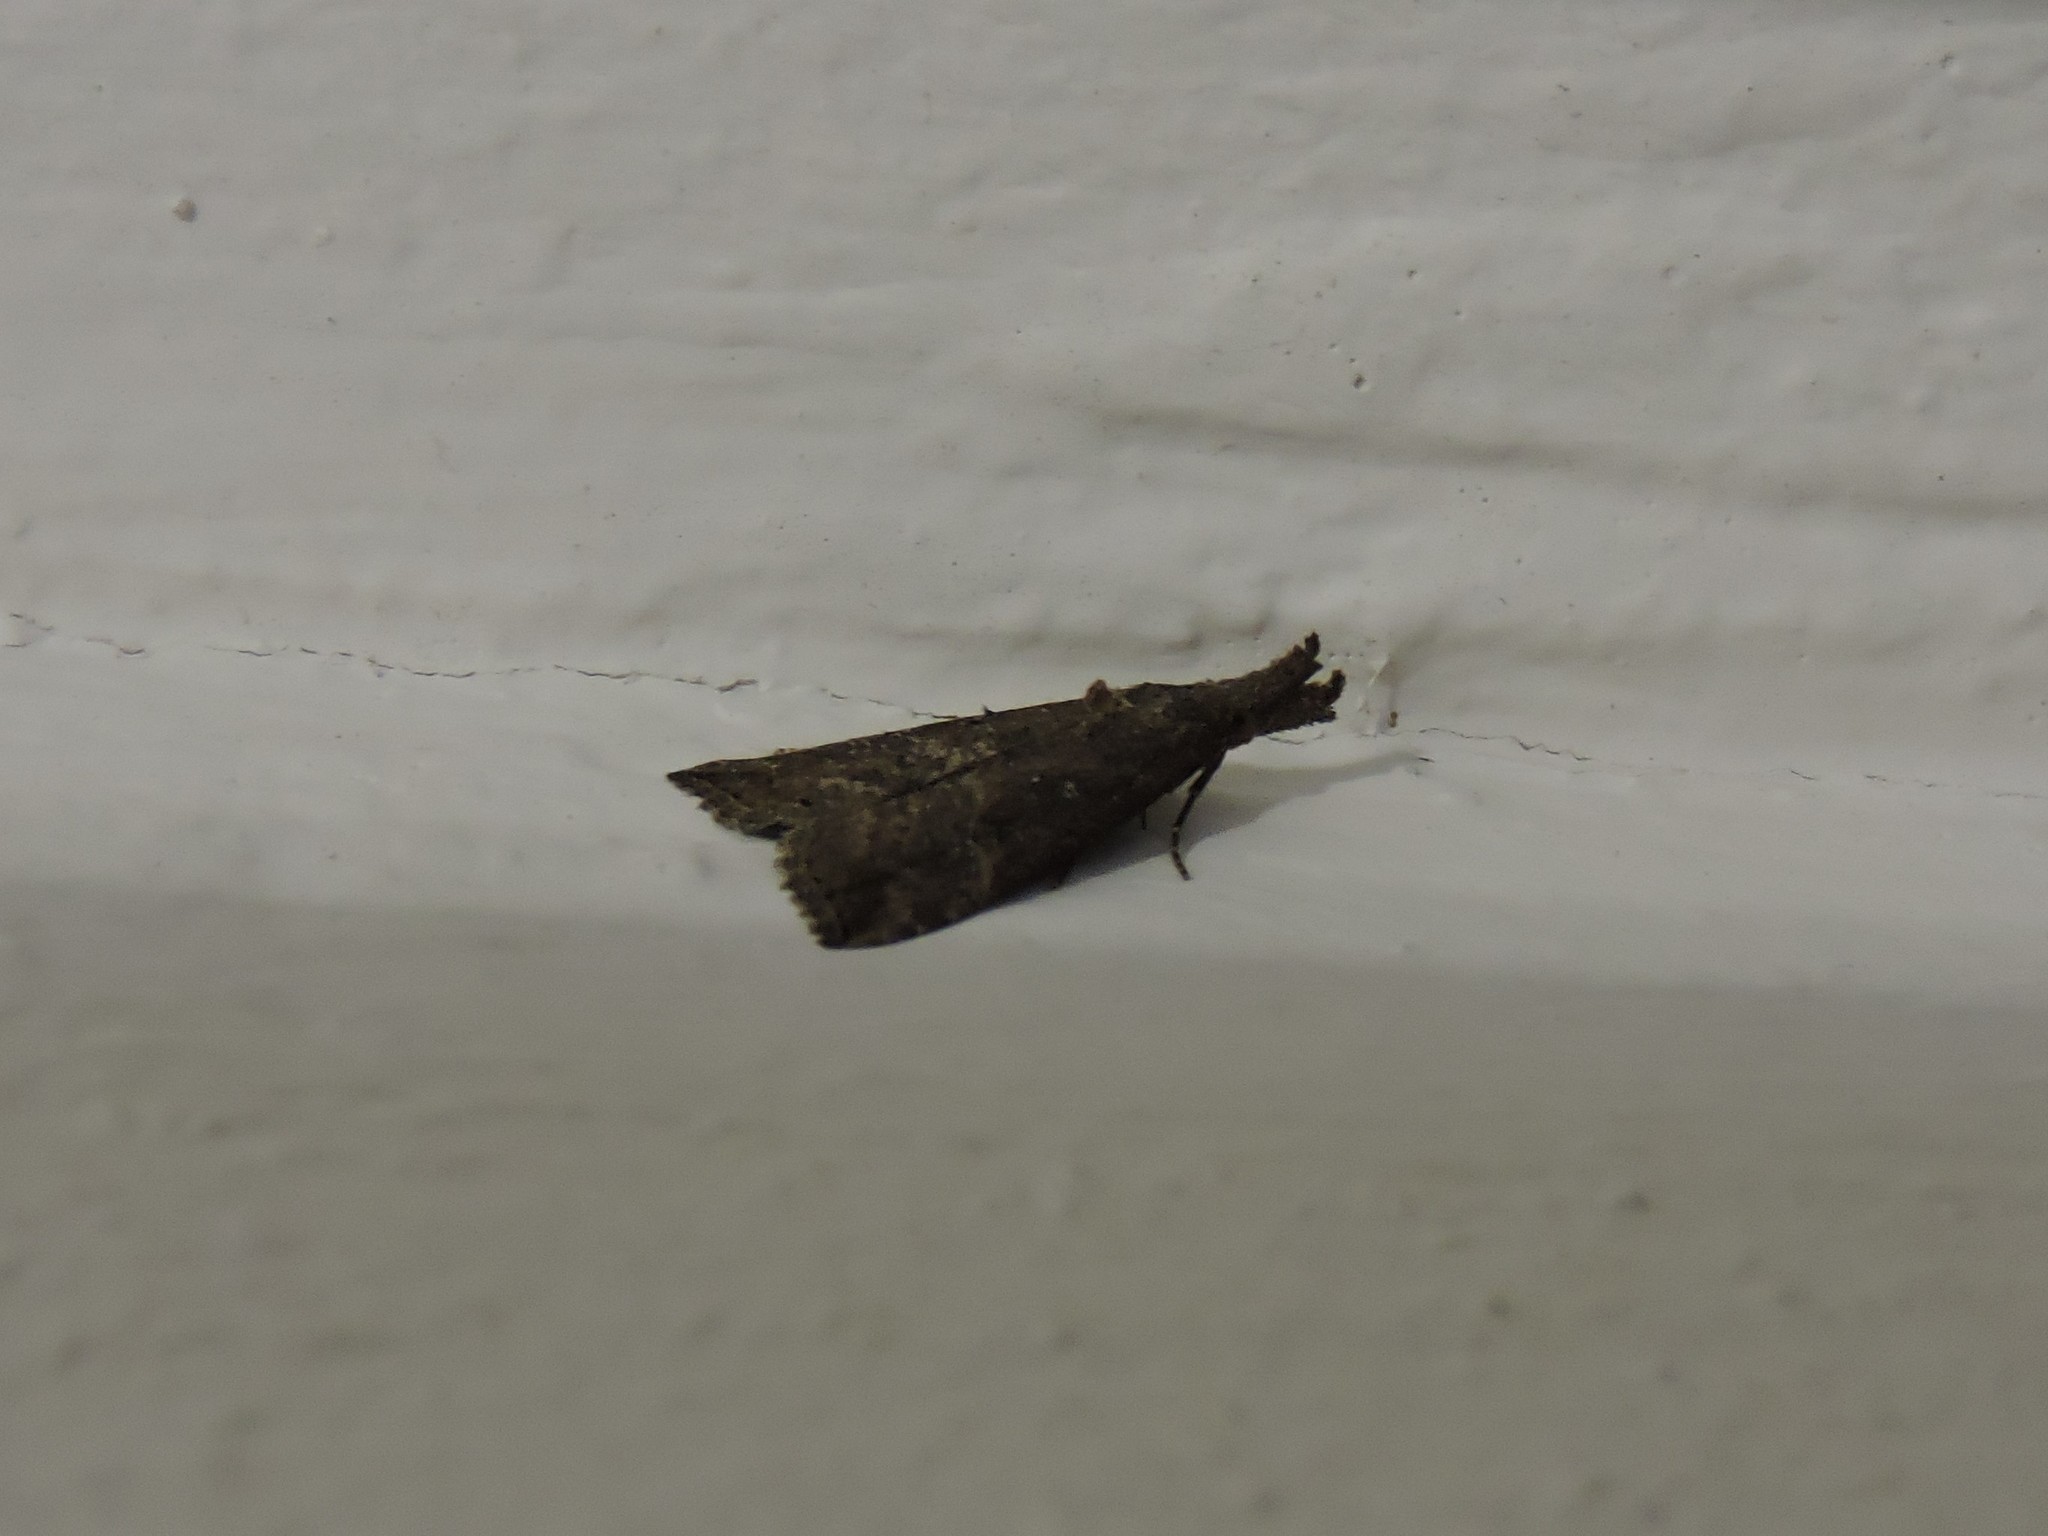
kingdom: Animalia
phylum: Arthropoda
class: Insecta
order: Lepidoptera
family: Erebidae
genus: Hypena
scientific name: Hypena rostralis
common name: Buttoned snout
